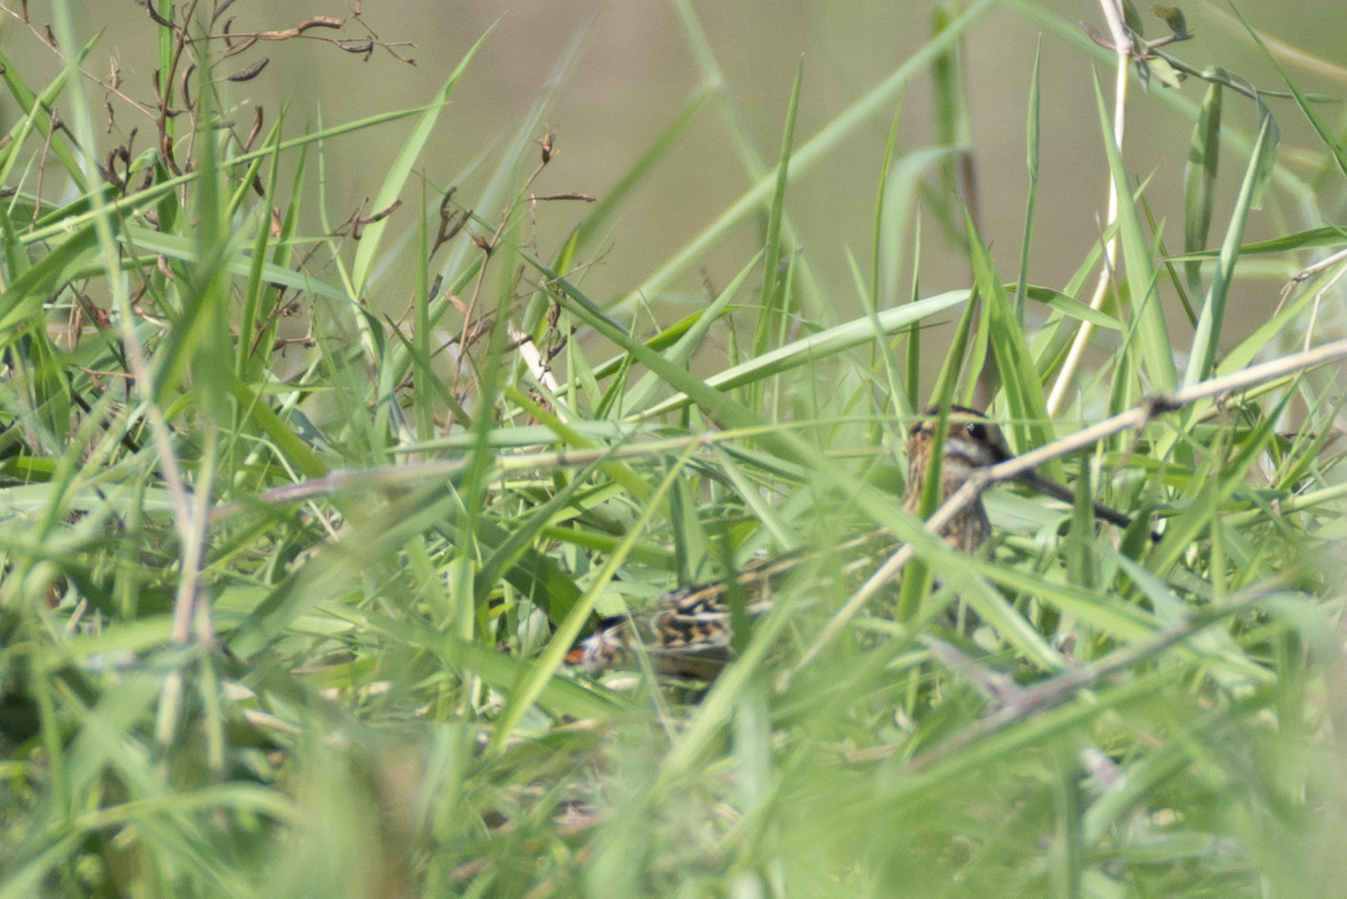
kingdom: Animalia
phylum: Chordata
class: Aves
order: Charadriiformes
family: Scolopacidae
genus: Gallinago
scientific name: Gallinago gallinago
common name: Common snipe
